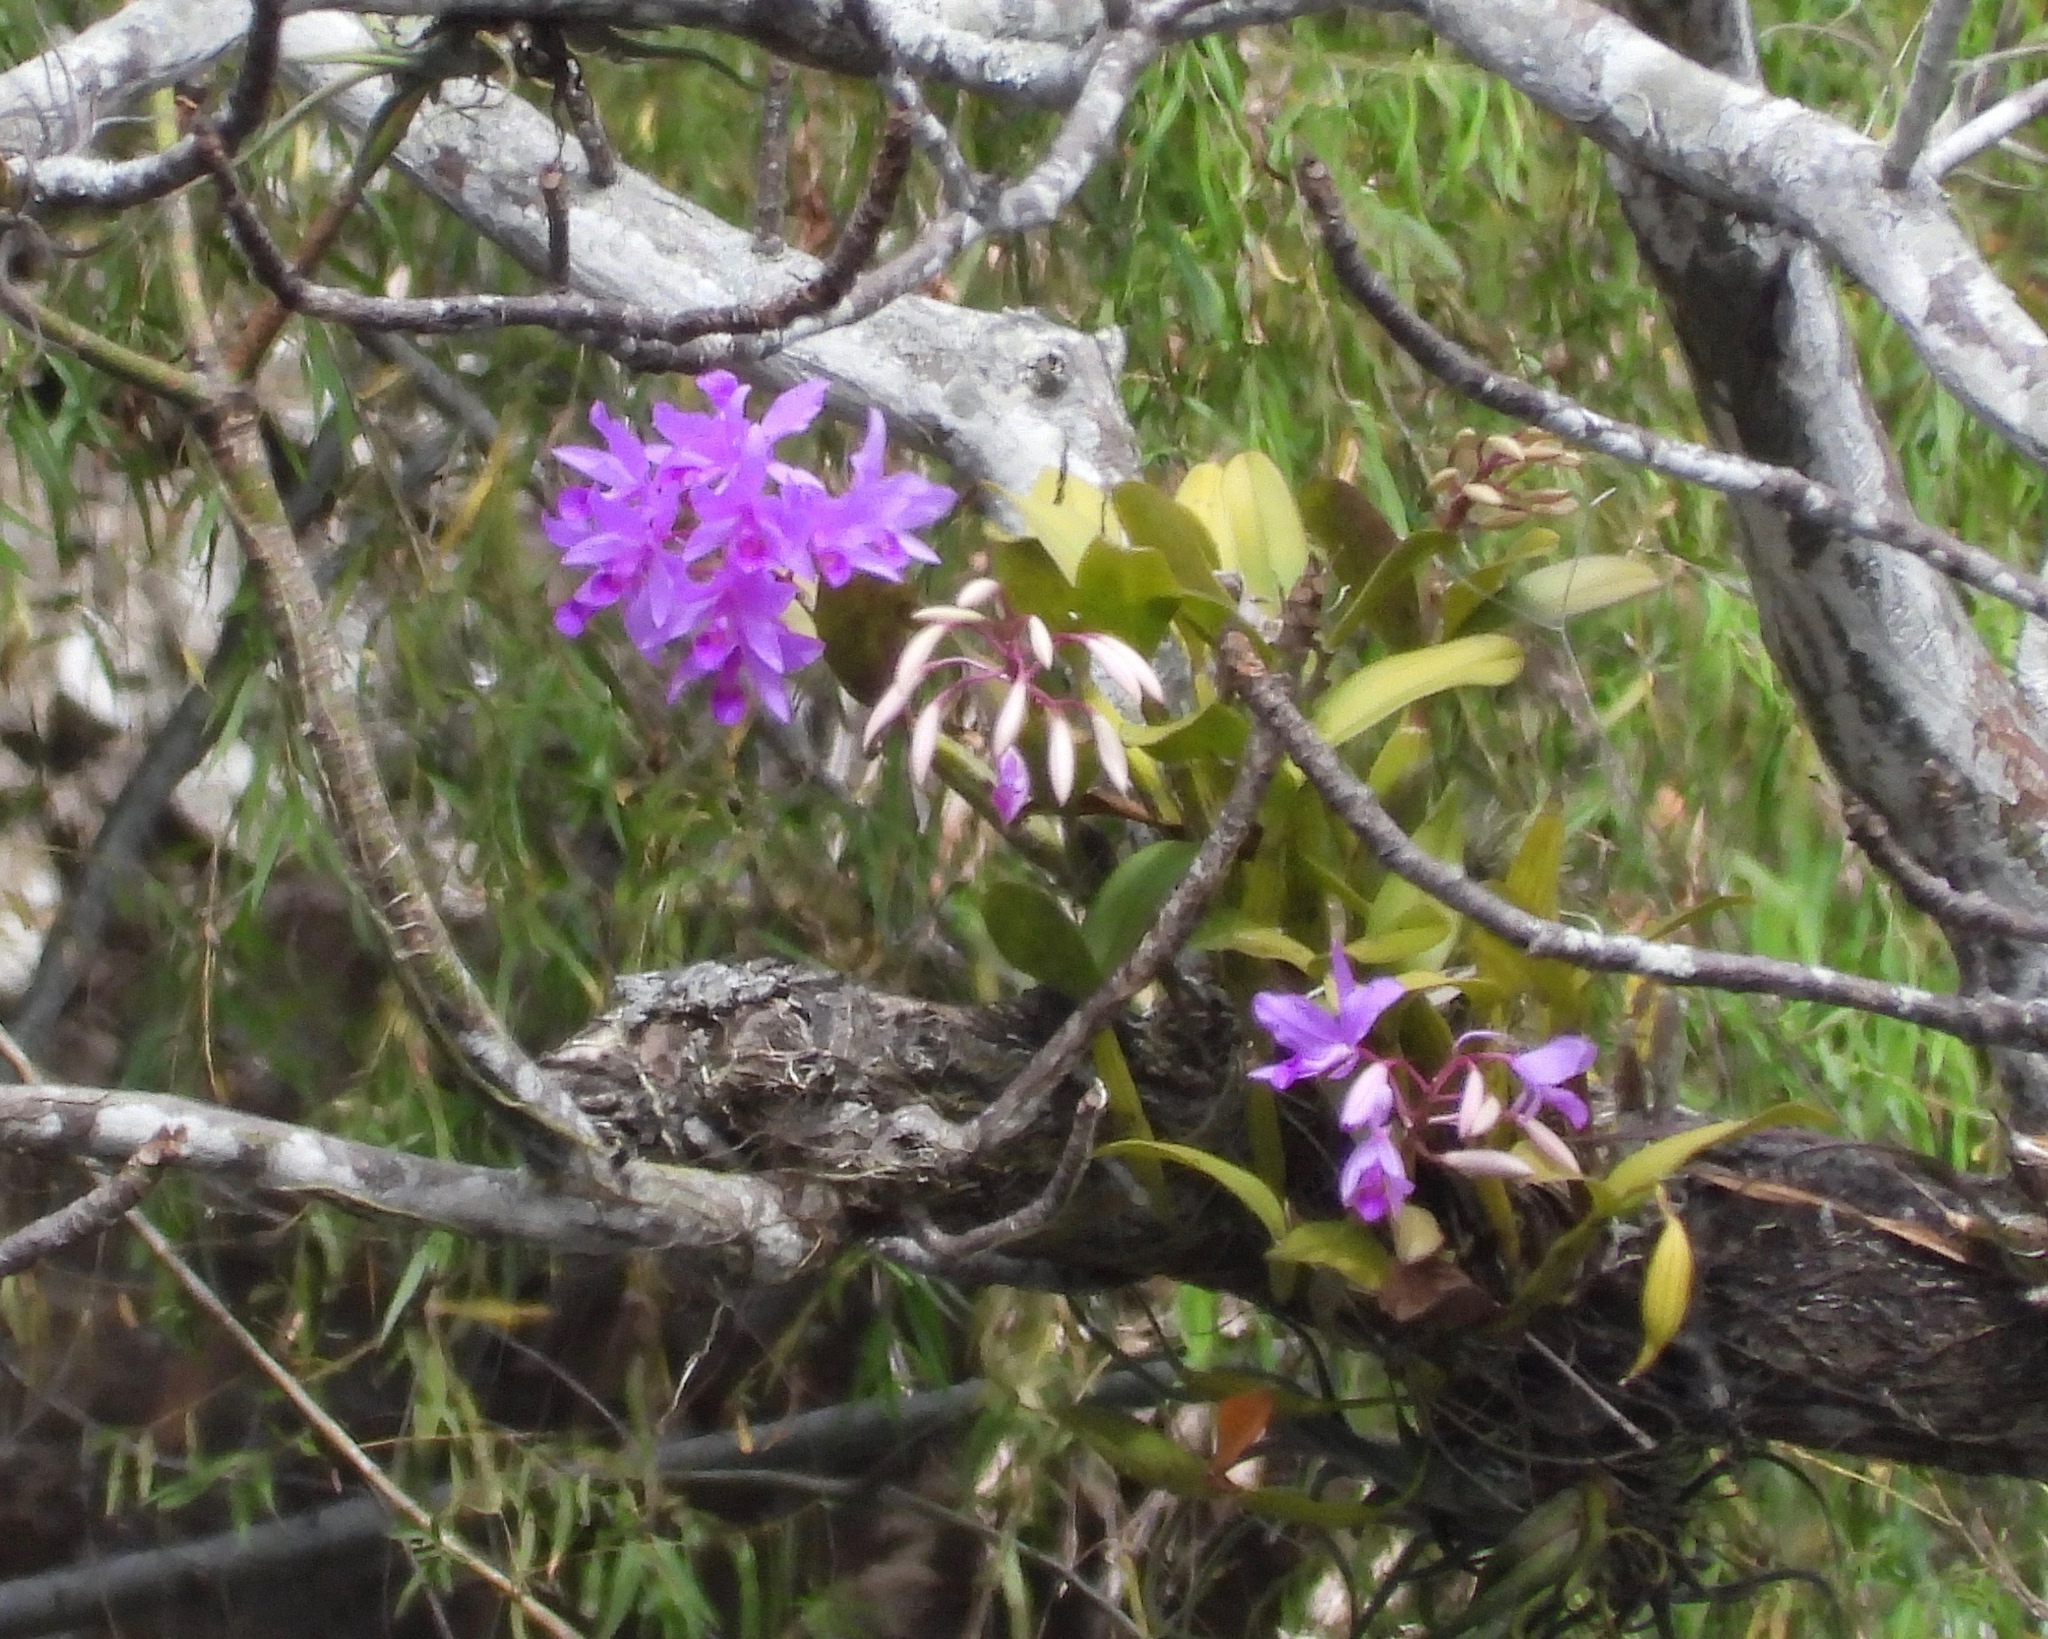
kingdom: Plantae
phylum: Tracheophyta
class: Liliopsida
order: Asparagales
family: Orchidaceae
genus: Guarianthe
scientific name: Guarianthe skinneri
